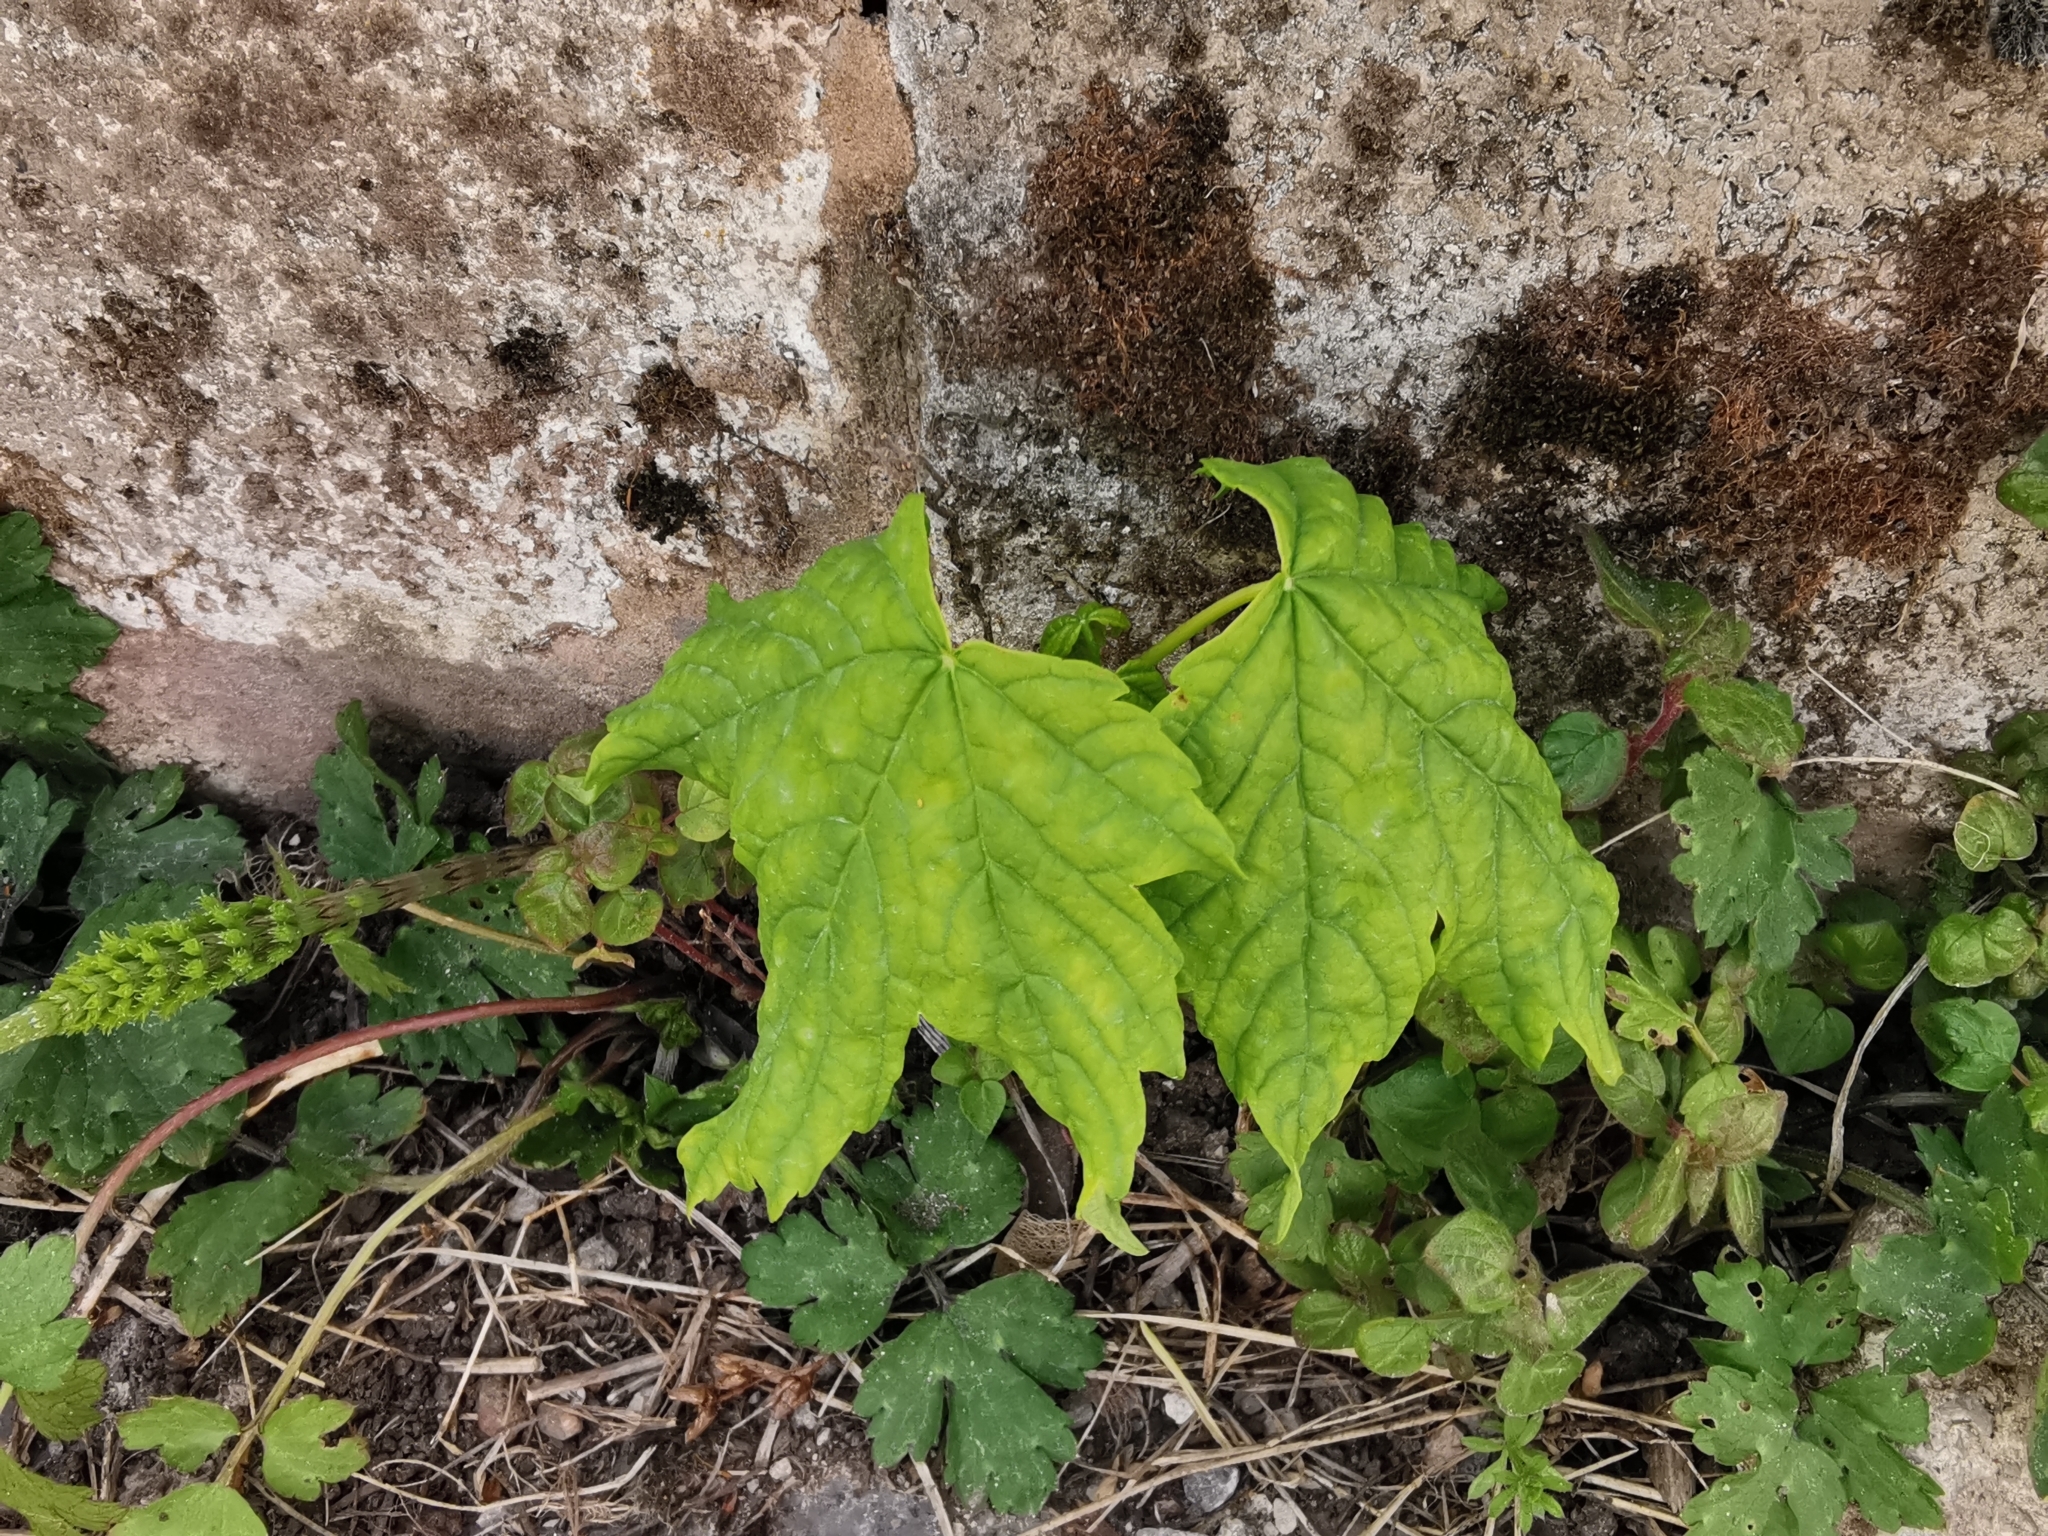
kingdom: Plantae
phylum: Tracheophyta
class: Magnoliopsida
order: Sapindales
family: Sapindaceae
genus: Acer
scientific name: Acer pseudoplatanus
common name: Sycamore
